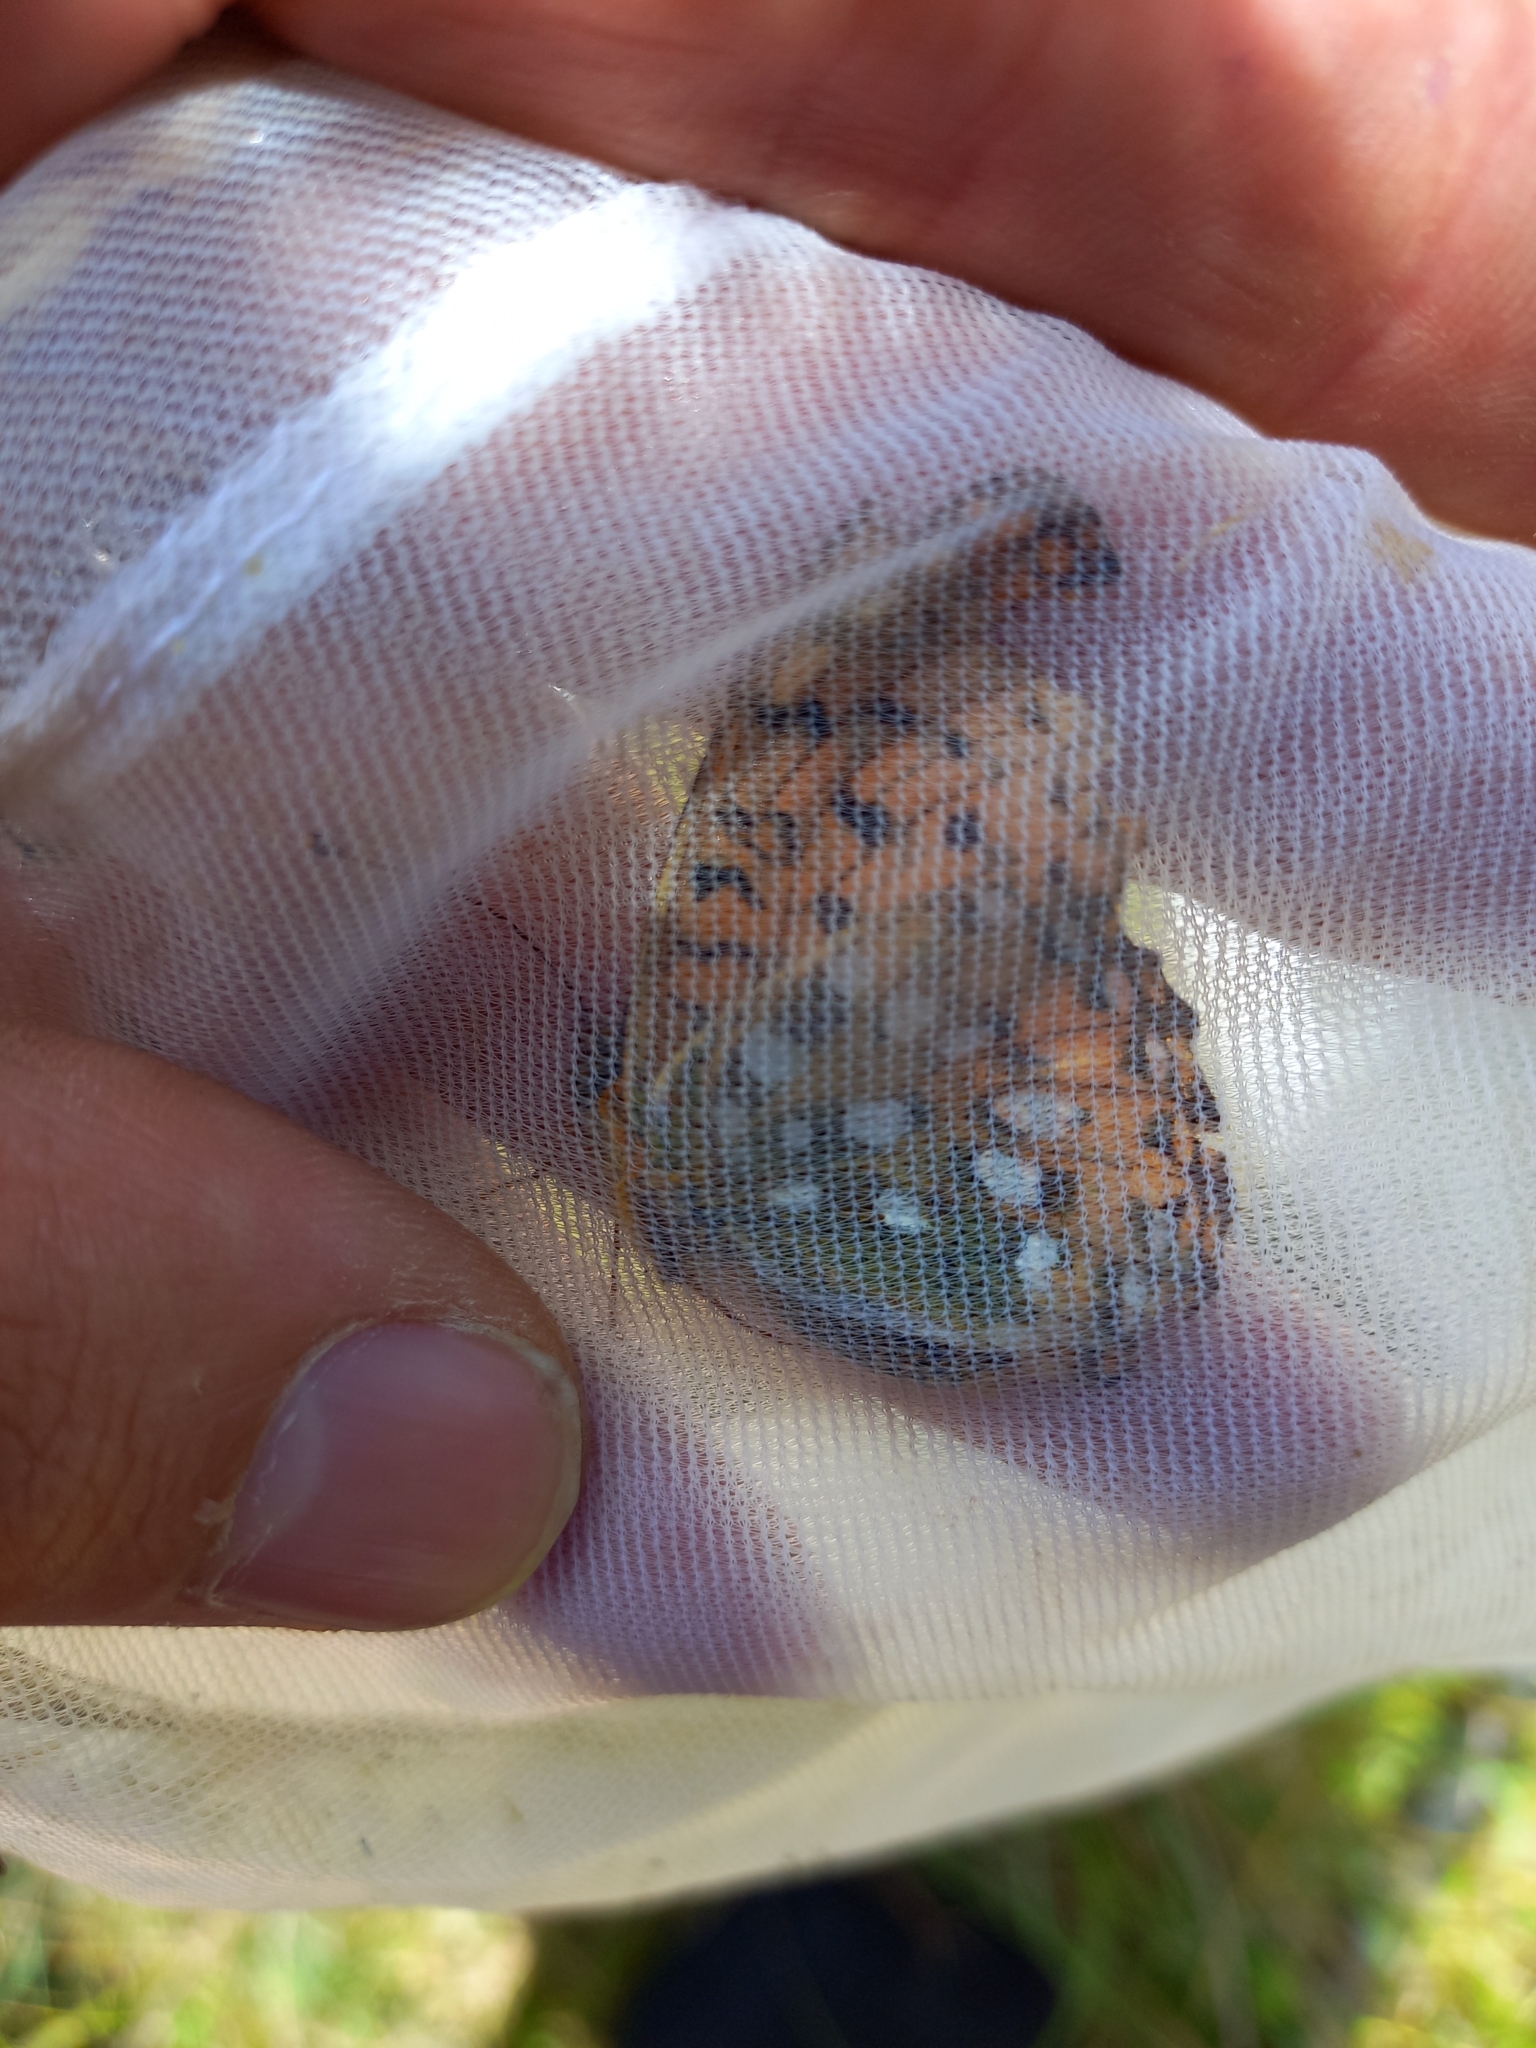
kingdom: Animalia
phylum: Arthropoda
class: Insecta
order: Lepidoptera
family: Nymphalidae
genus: Speyeria
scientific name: Speyeria aglaja
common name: Dark green fritillary
